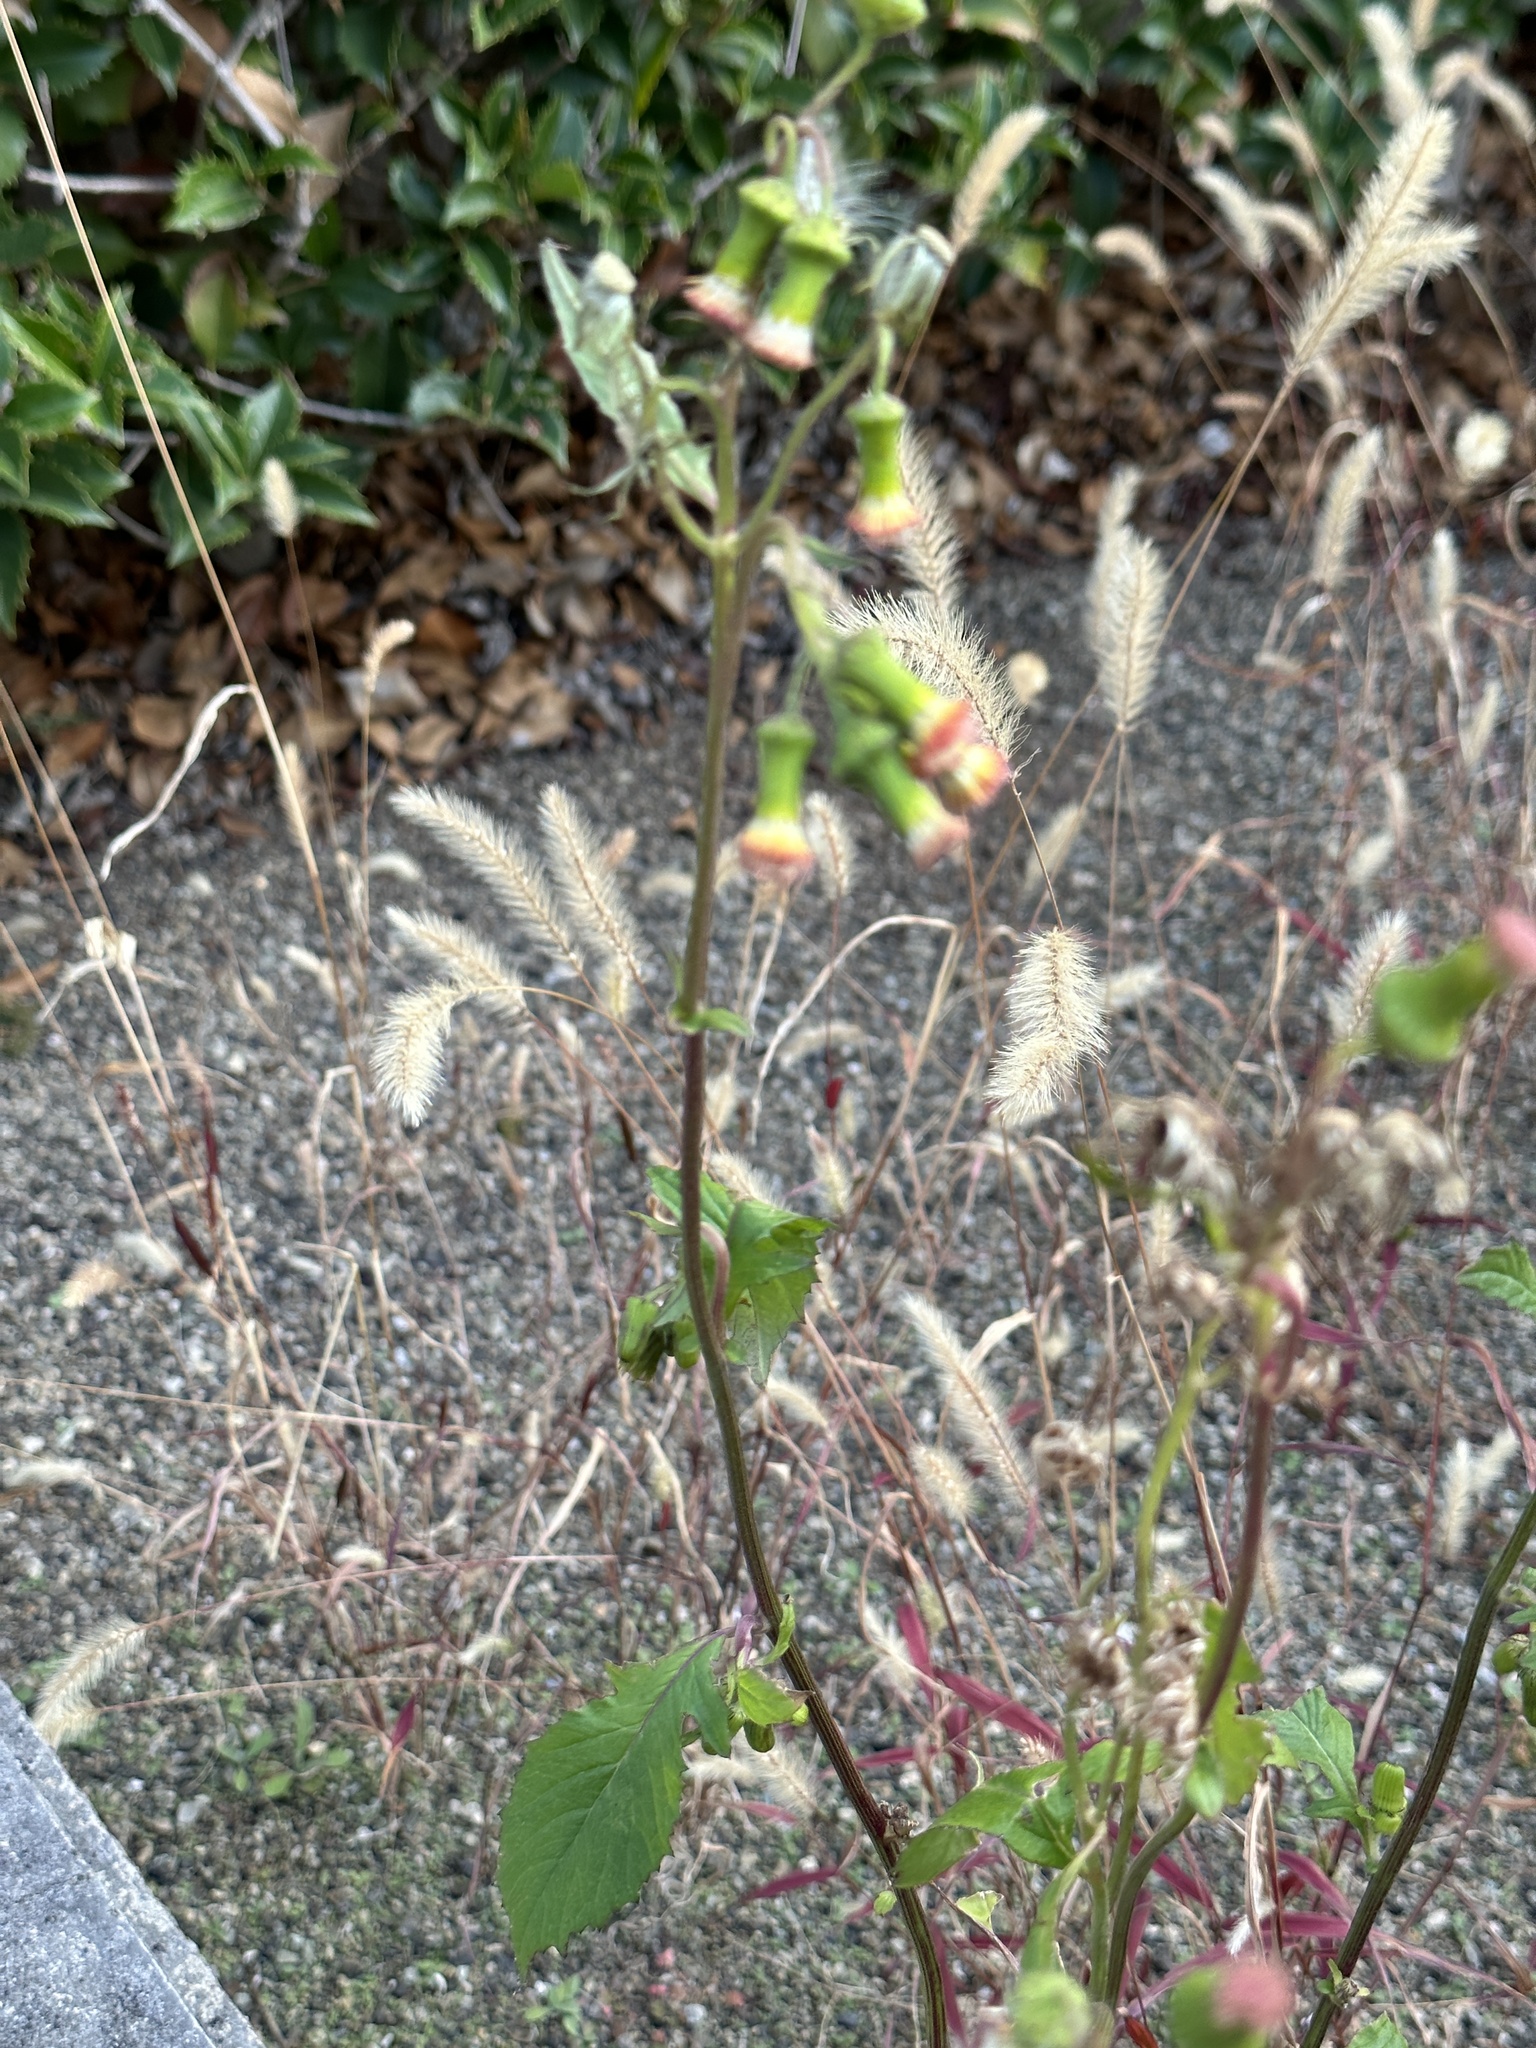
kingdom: Plantae
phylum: Tracheophyta
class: Magnoliopsida
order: Asterales
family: Asteraceae
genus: Crassocephalum
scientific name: Crassocephalum crepidioides
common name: Redflower ragleaf
